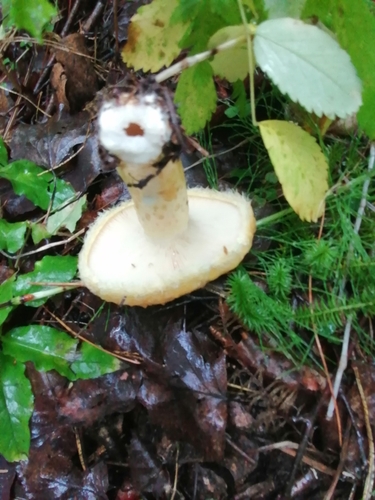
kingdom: Fungi
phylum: Basidiomycota
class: Agaricomycetes
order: Russulales
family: Russulaceae
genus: Lactarius
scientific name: Lactarius repraesentaneus
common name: Yellow bearded milkcap
